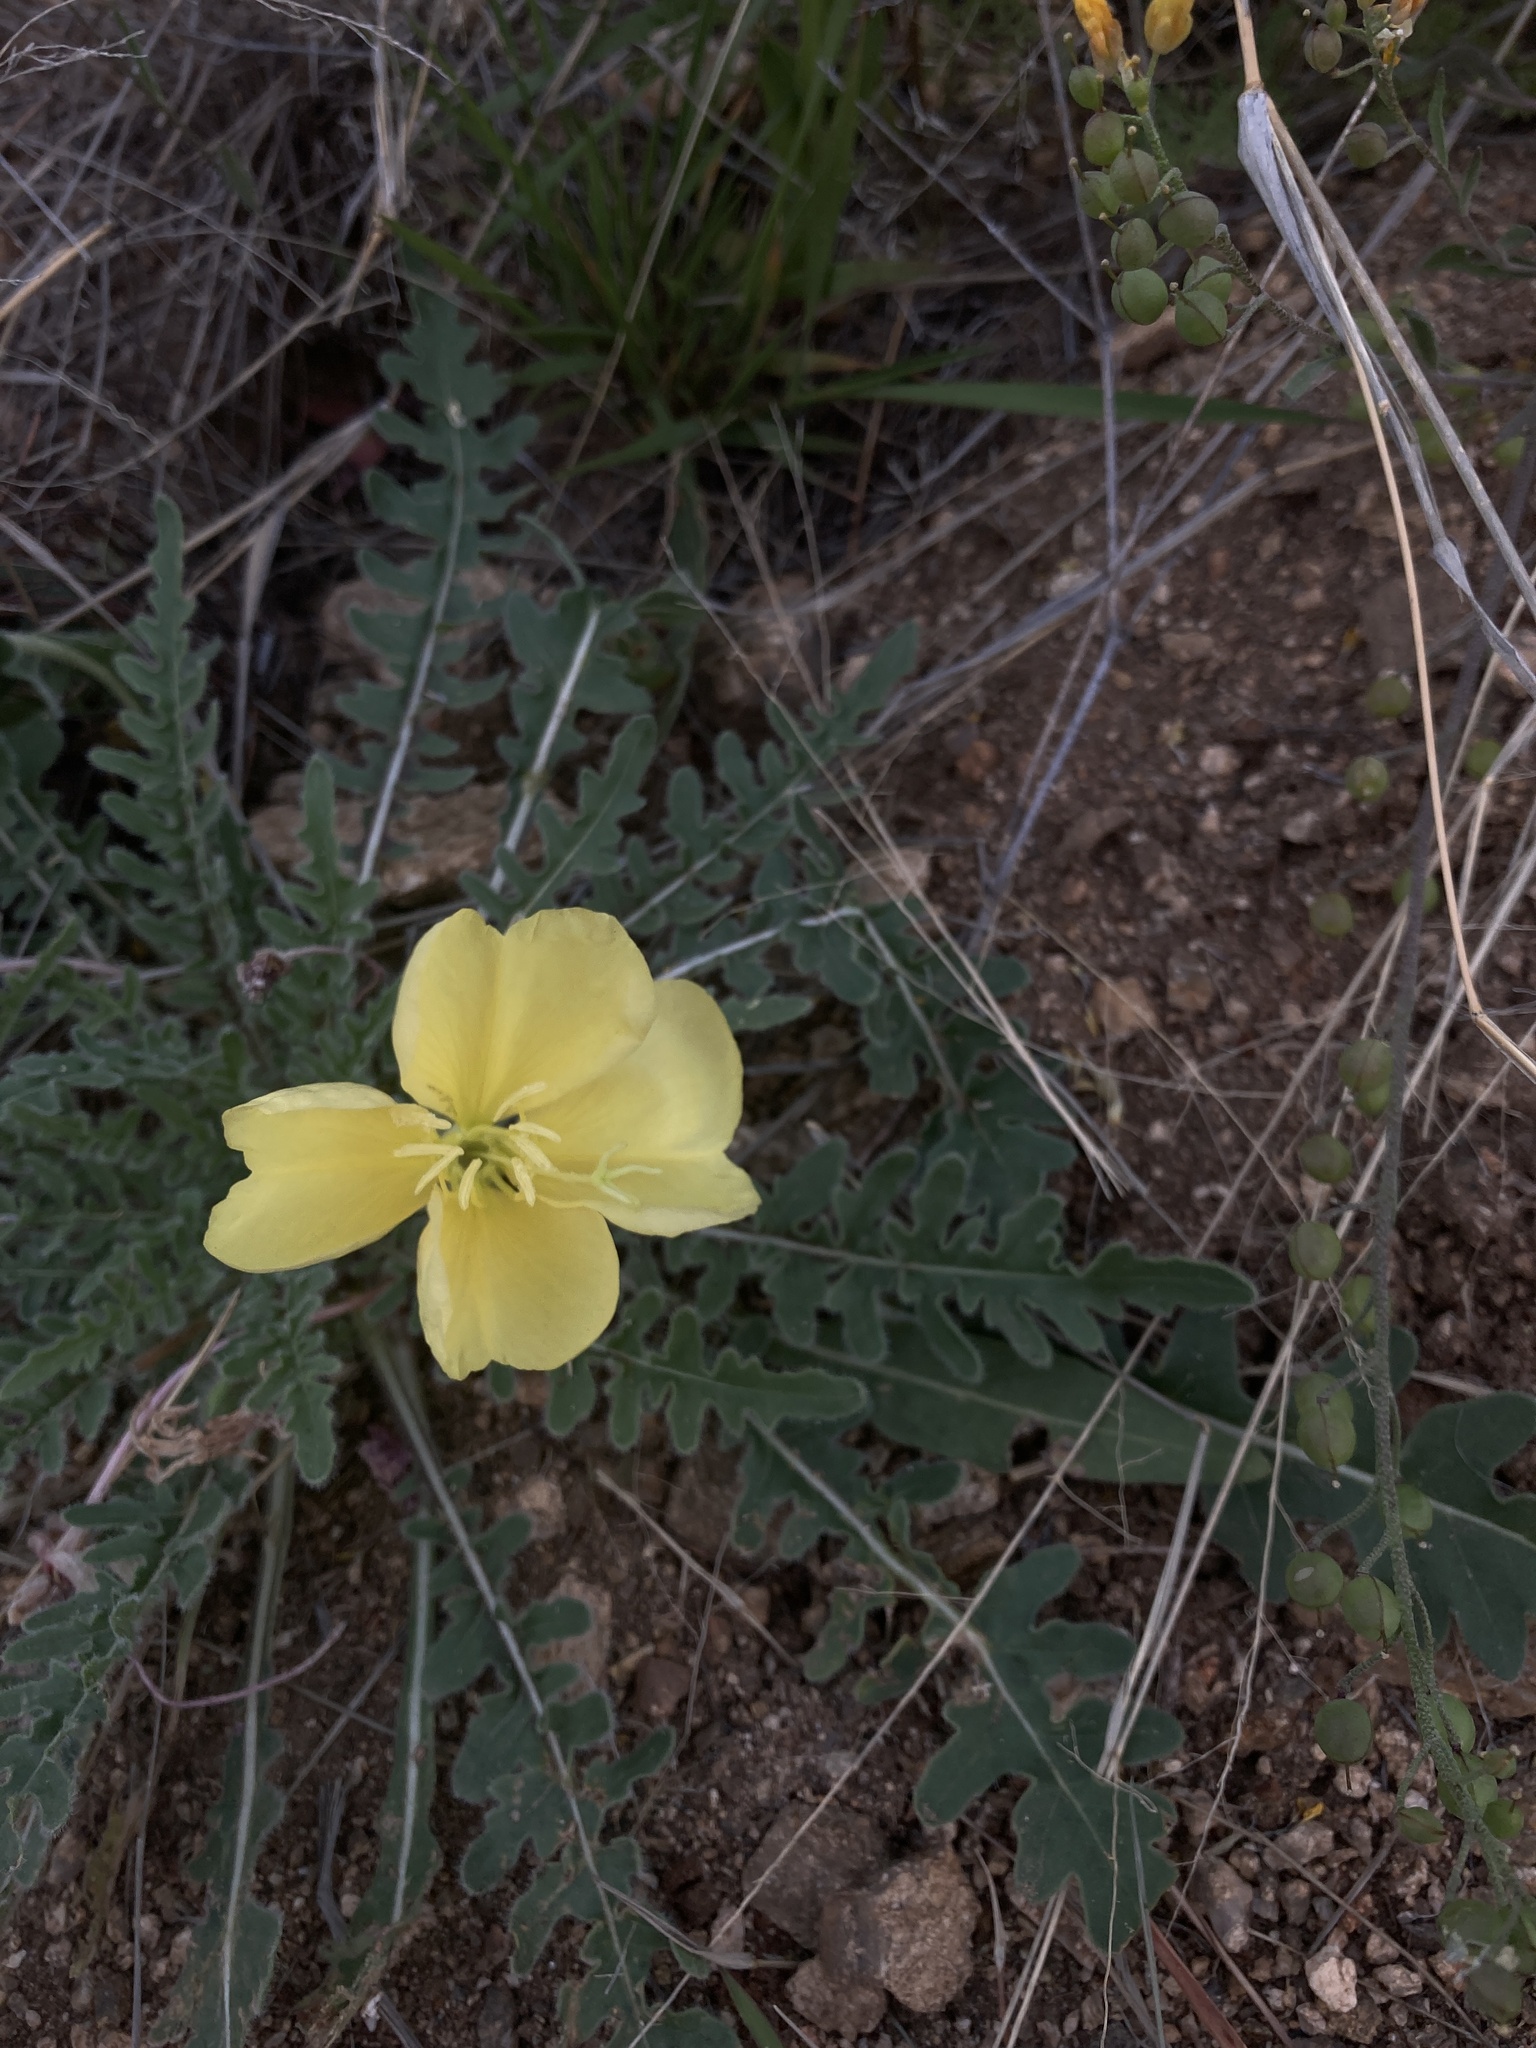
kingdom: Plantae
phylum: Tracheophyta
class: Magnoliopsida
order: Myrtales
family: Onagraceae
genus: Oenothera
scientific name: Oenothera primiveris
